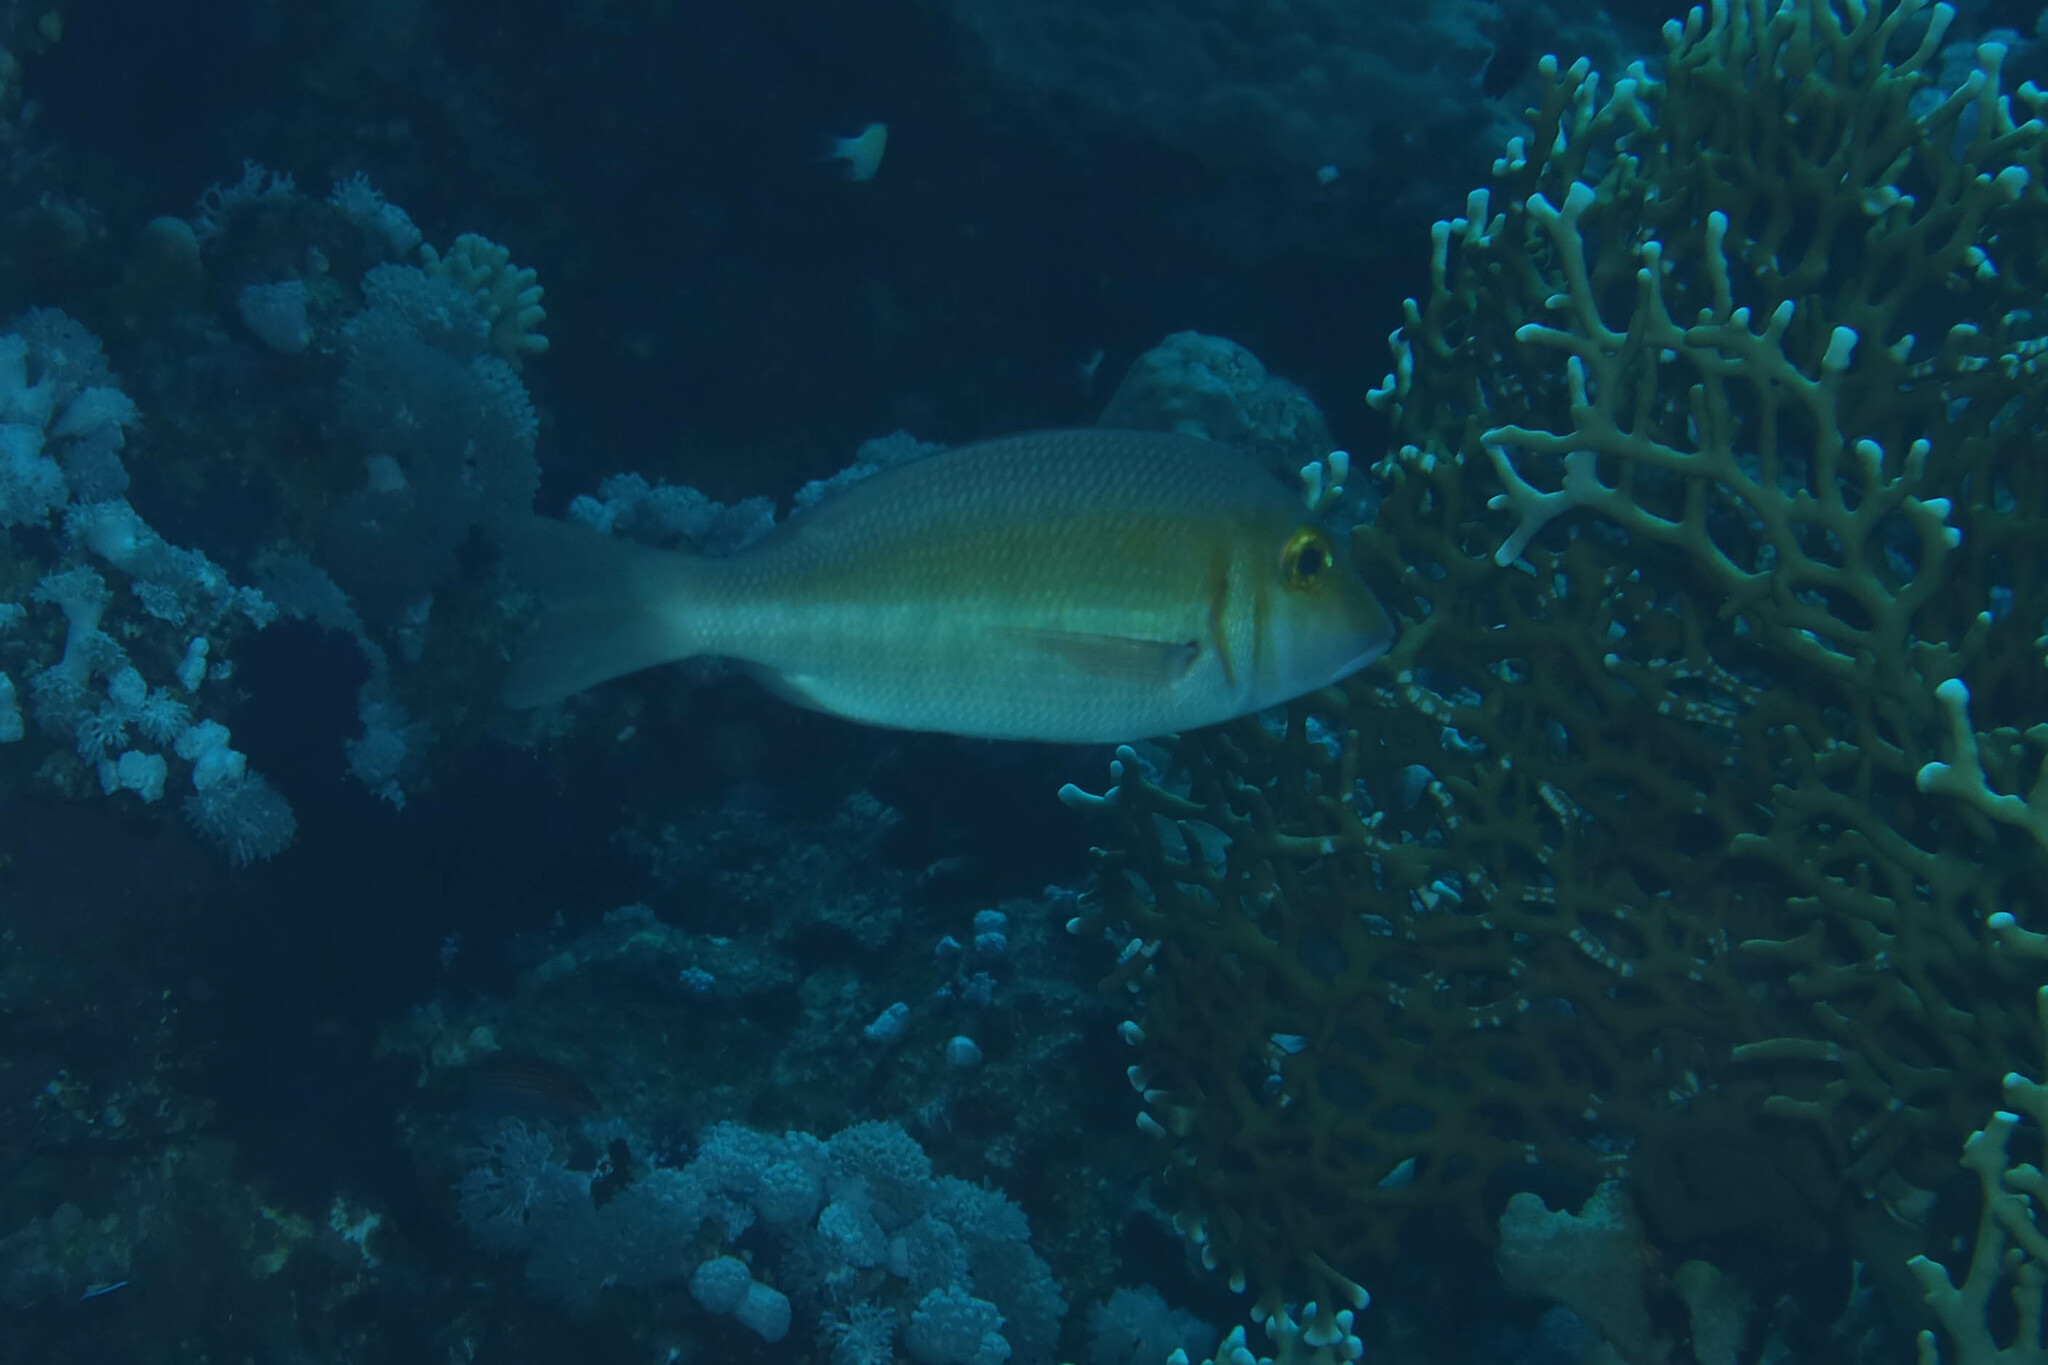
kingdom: Animalia
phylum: Chordata
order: Perciformes
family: Lethrinidae
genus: Lethrinus
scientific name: Lethrinus borbonicus
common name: Snubnose emperor
